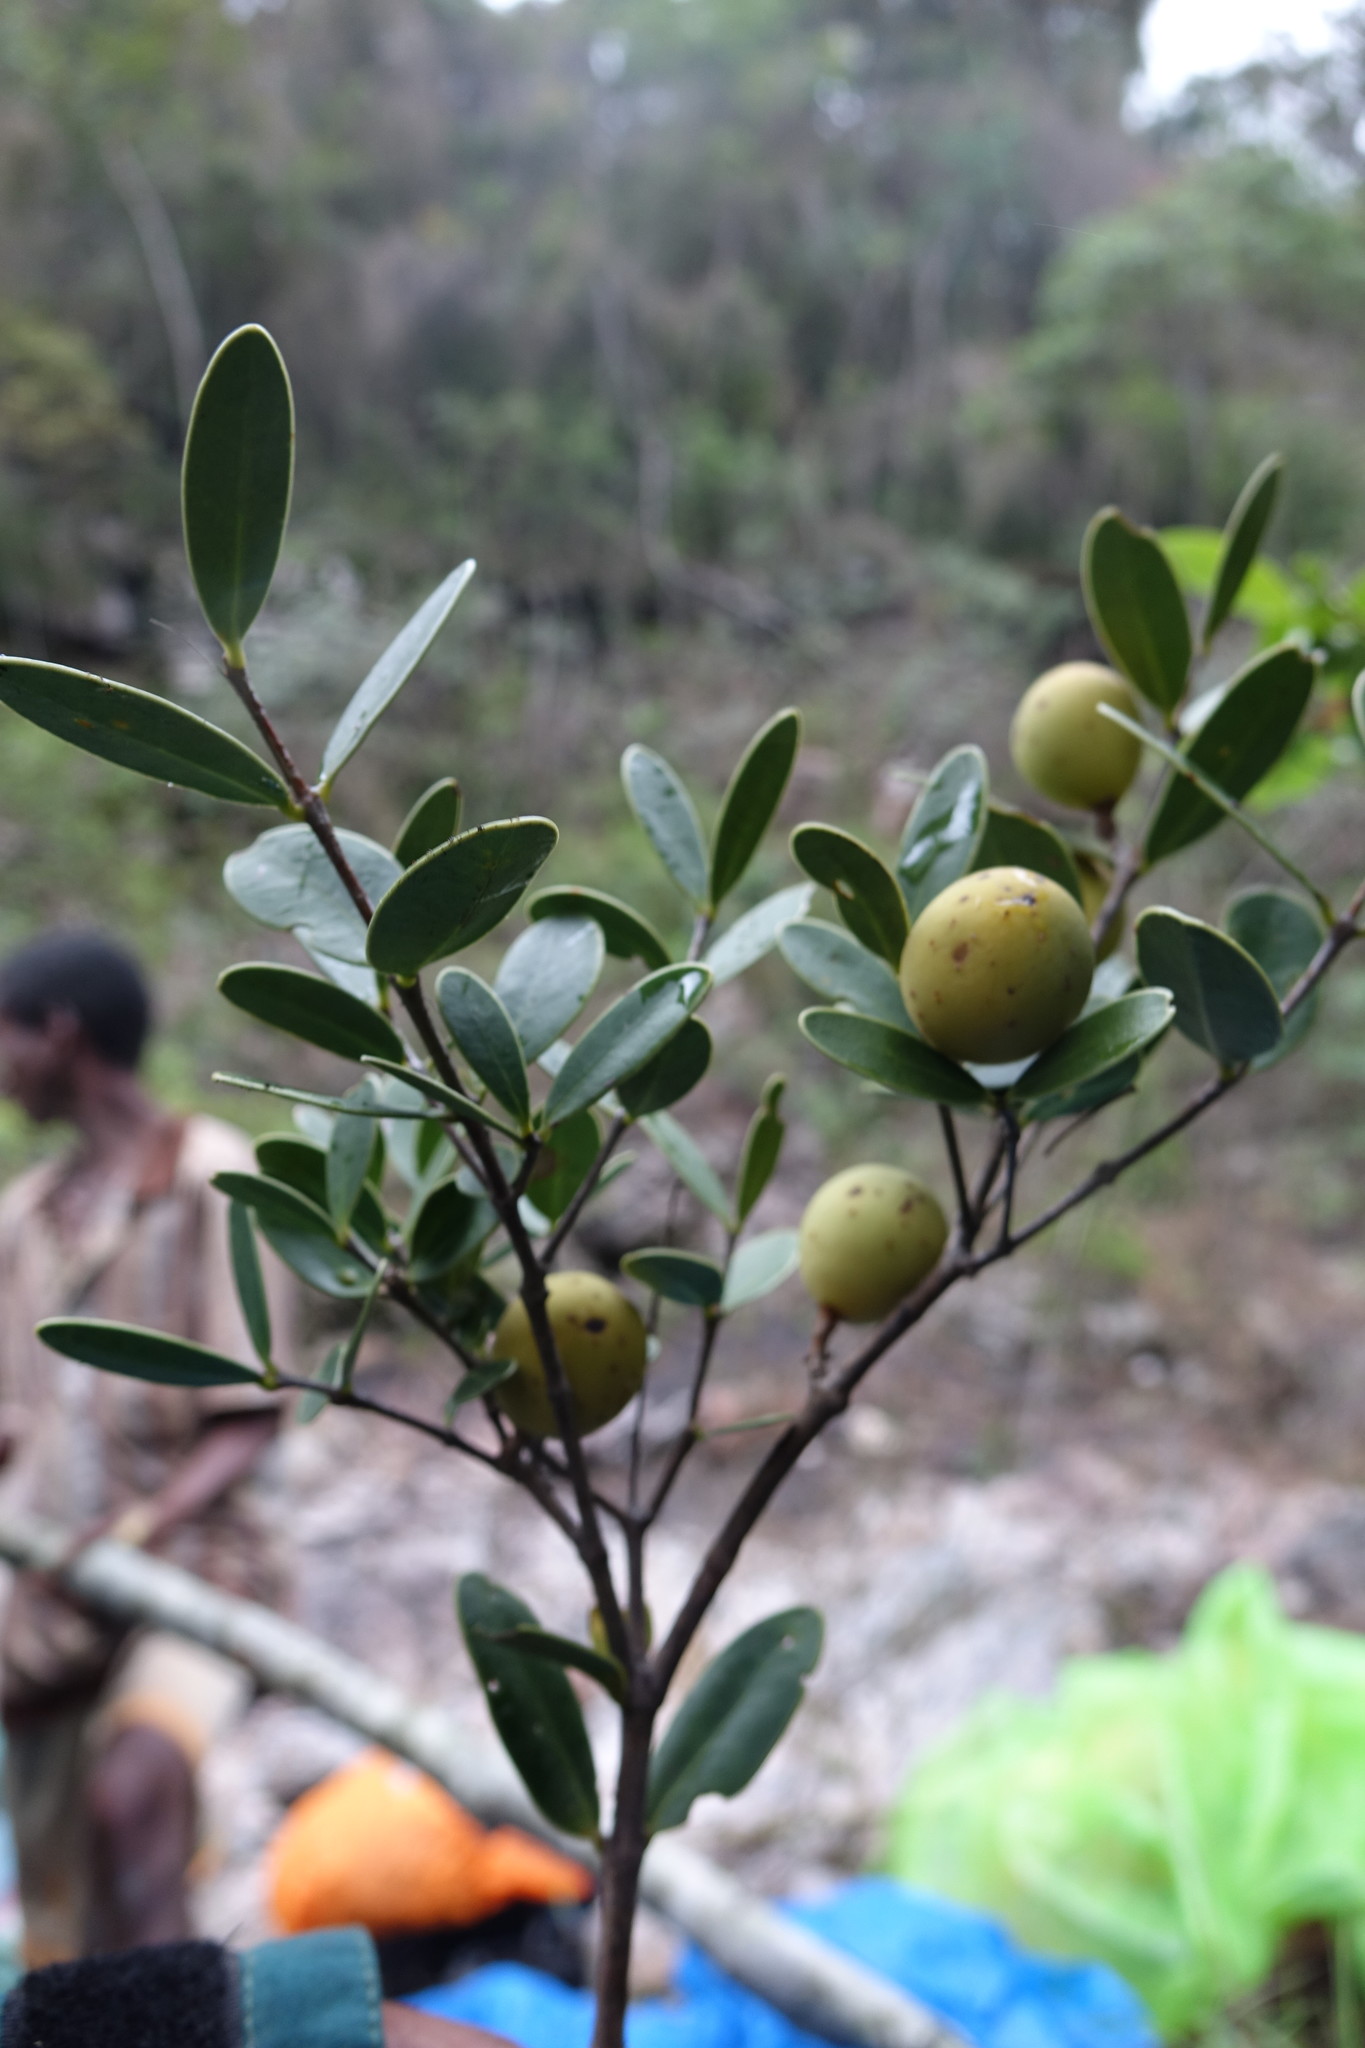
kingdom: Plantae
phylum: Tracheophyta
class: Magnoliopsida
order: Lamiales
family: Oleaceae
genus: Noronhia
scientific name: Noronhia lowryi
